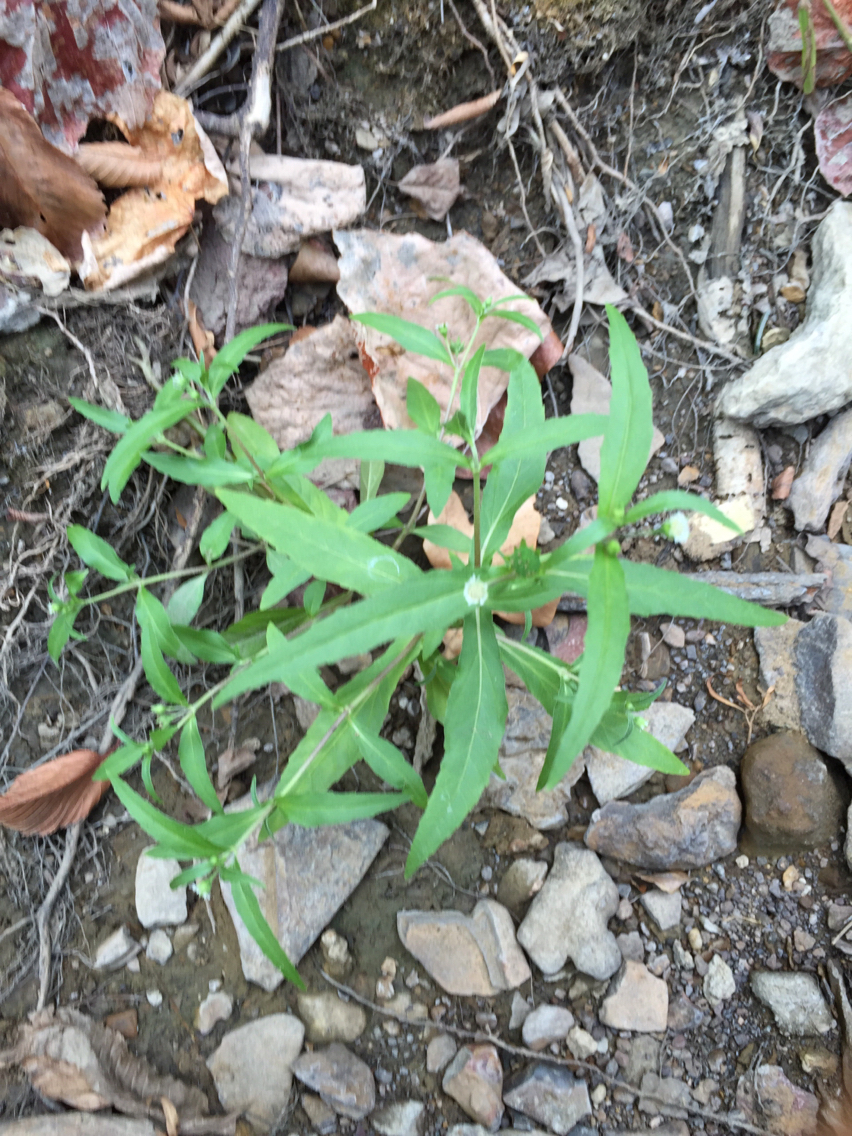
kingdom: Plantae
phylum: Tracheophyta
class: Magnoliopsida
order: Asterales
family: Asteraceae
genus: Eclipta
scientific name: Eclipta prostrata
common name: False daisy
